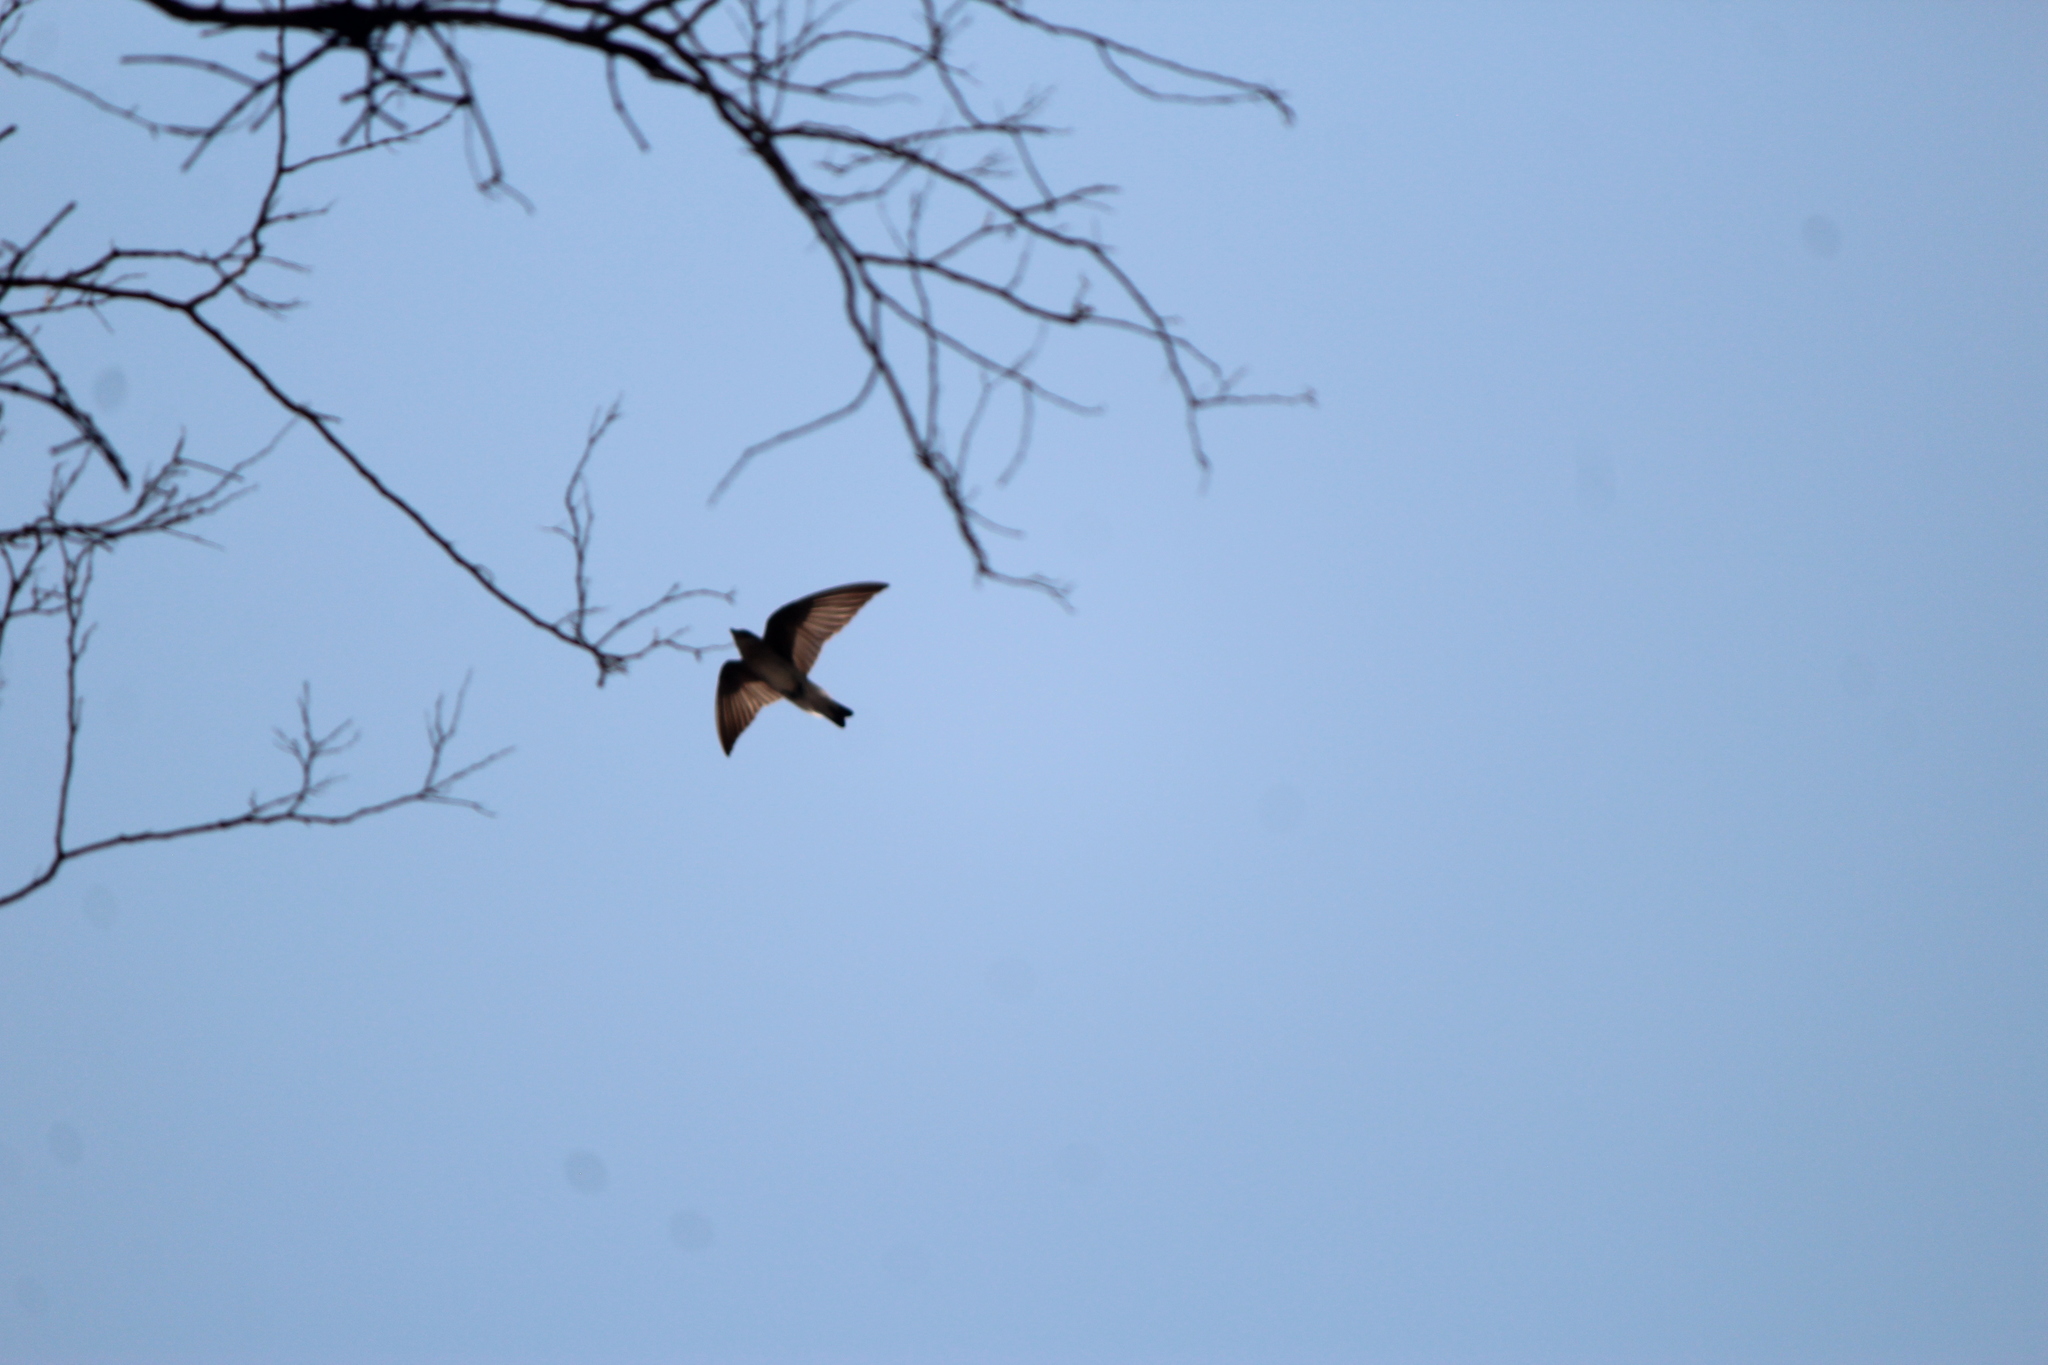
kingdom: Animalia
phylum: Chordata
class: Aves
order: Passeriformes
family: Hirundinidae
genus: Stelgidopteryx
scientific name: Stelgidopteryx serripennis
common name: Northern rough-winged swallow
